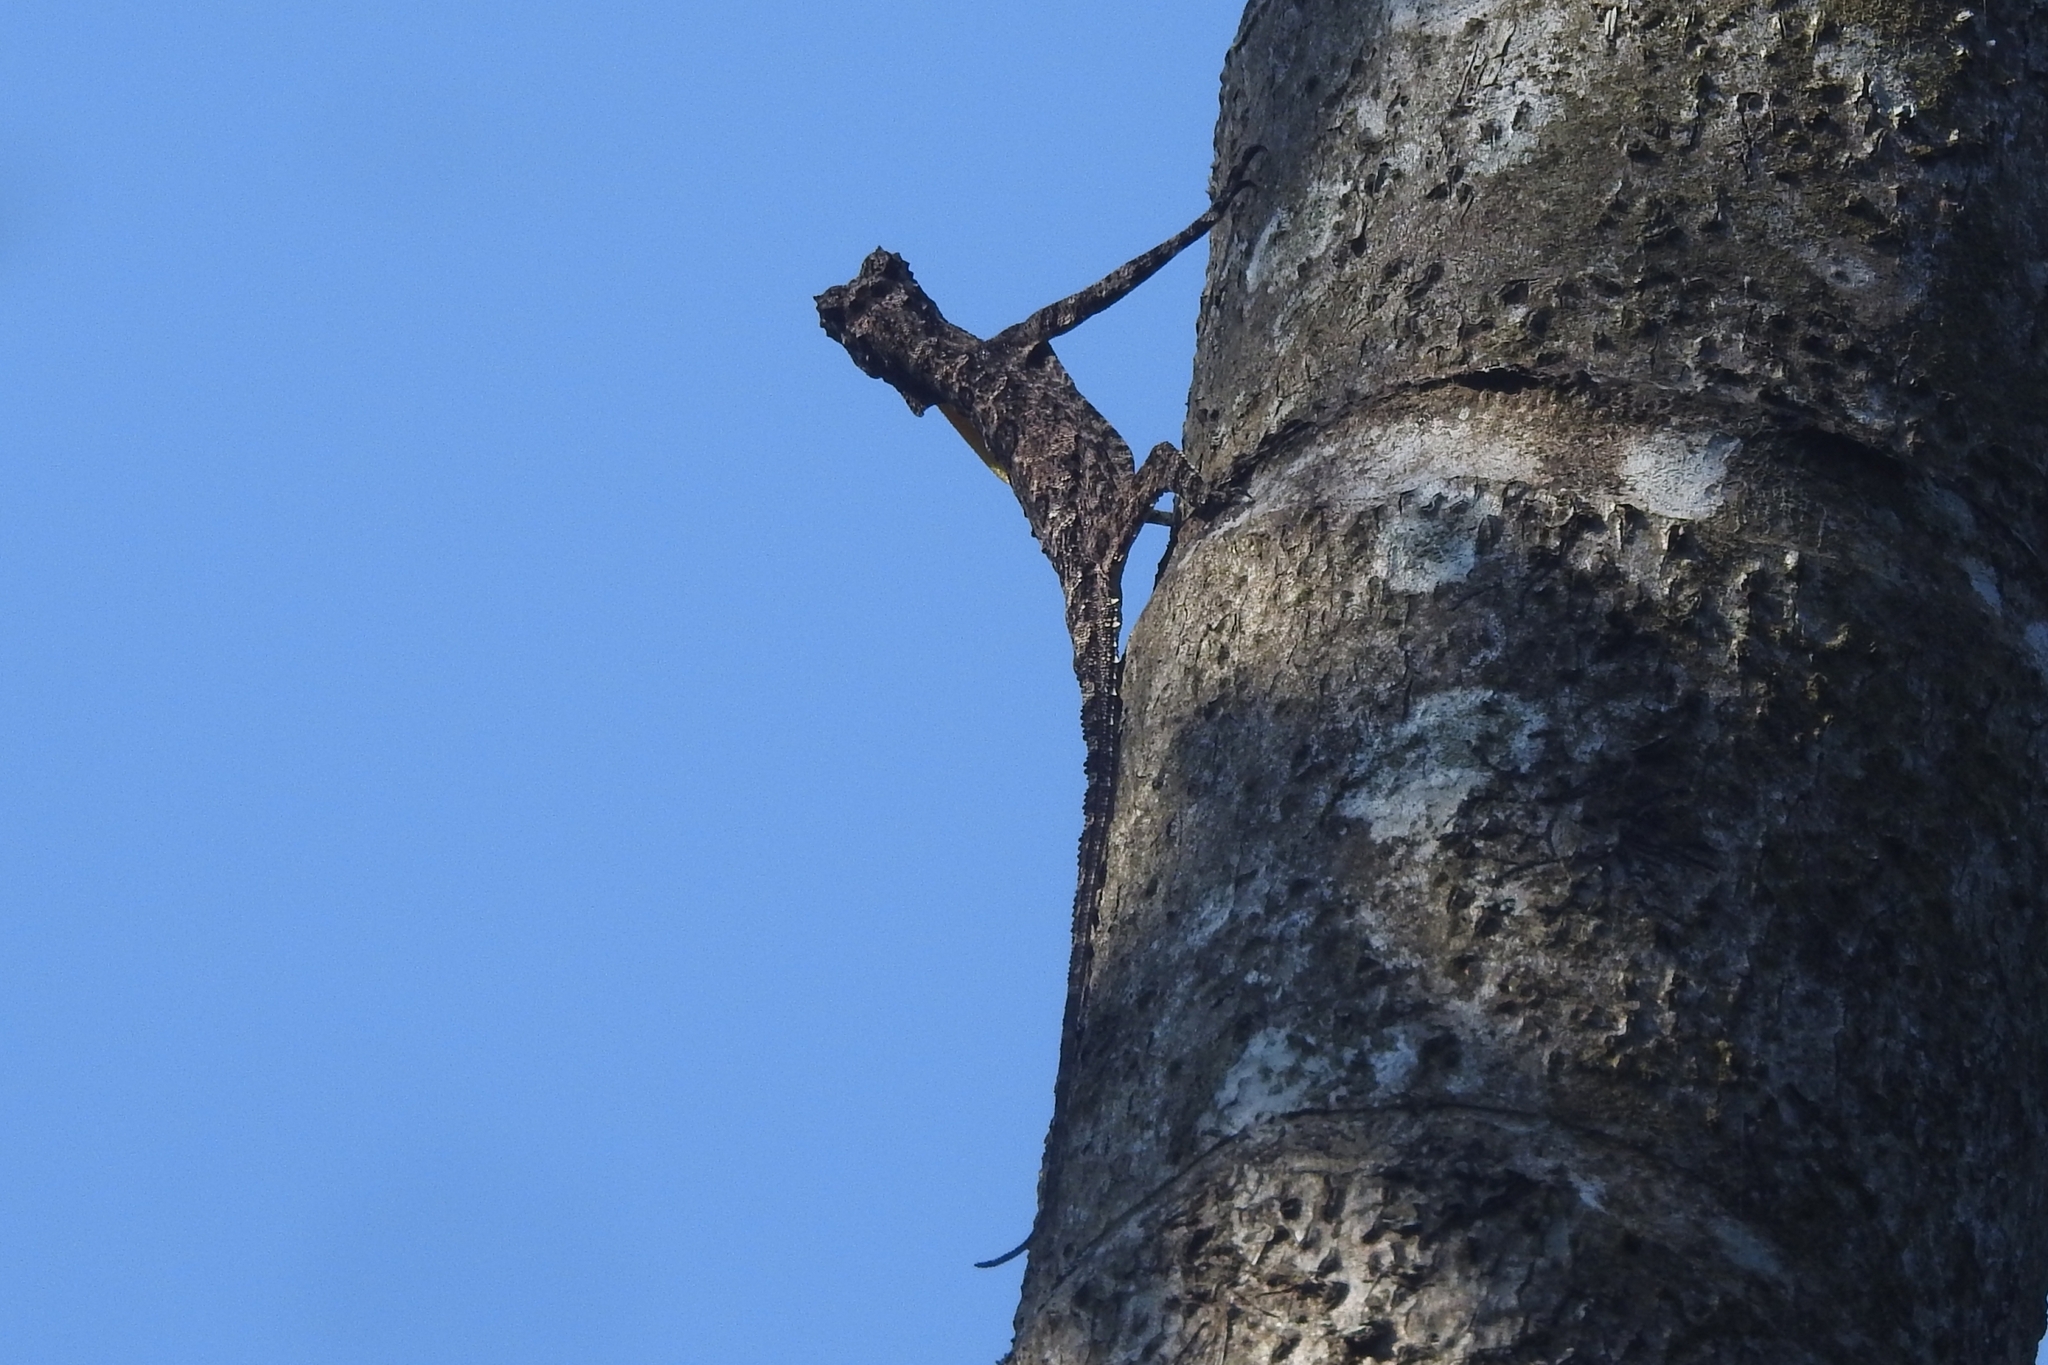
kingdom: Animalia
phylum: Chordata
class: Squamata
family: Agamidae
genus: Draco
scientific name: Draco dussumieri
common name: Southern flying lizard
